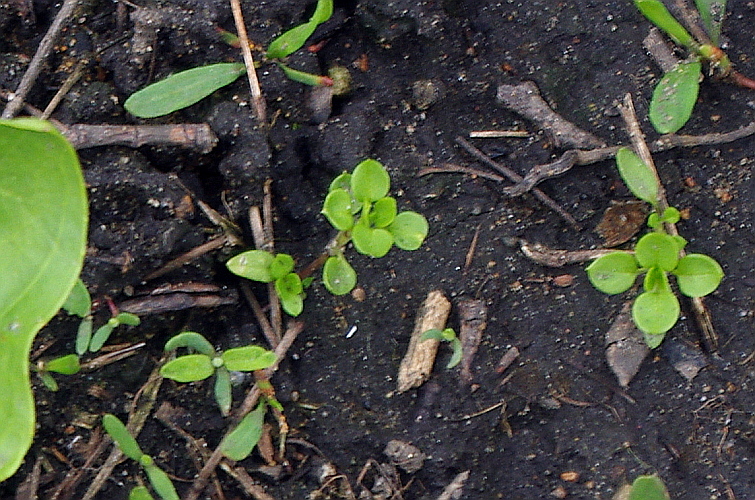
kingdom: Plantae
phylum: Tracheophyta
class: Magnoliopsida
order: Caryophyllales
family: Caryophyllaceae
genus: Stellaria
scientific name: Stellaria media
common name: Common chickweed
